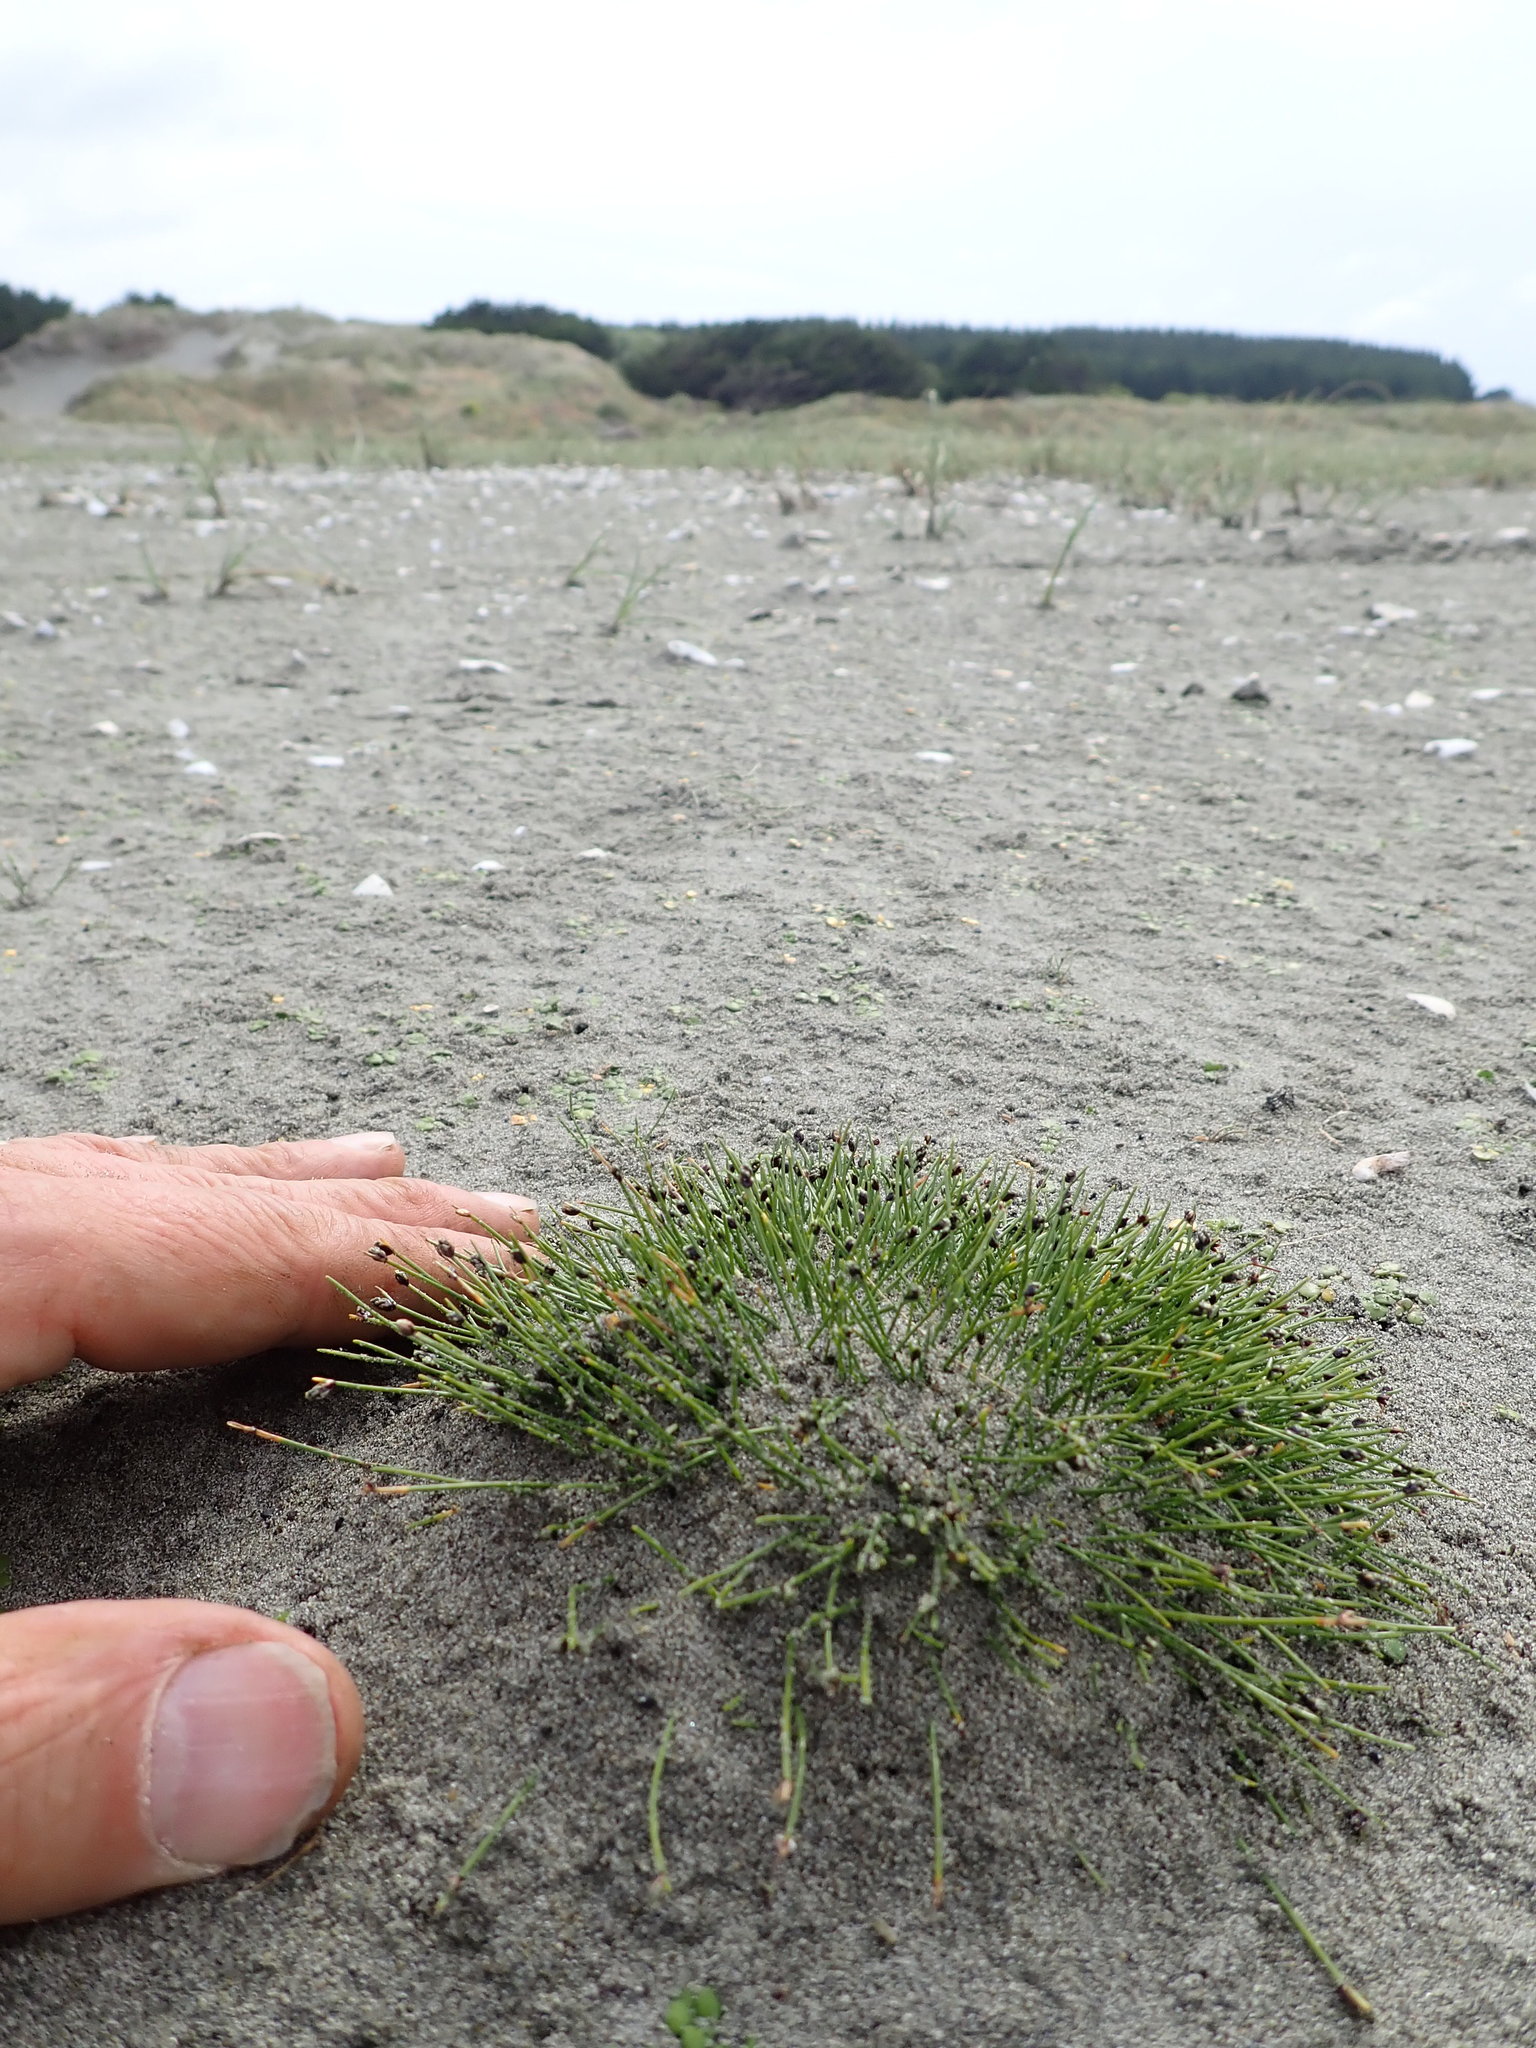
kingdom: Plantae
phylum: Tracheophyta
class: Liliopsida
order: Poales
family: Cyperaceae
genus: Isolepis
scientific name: Isolepis cernua
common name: Slender club-rush
